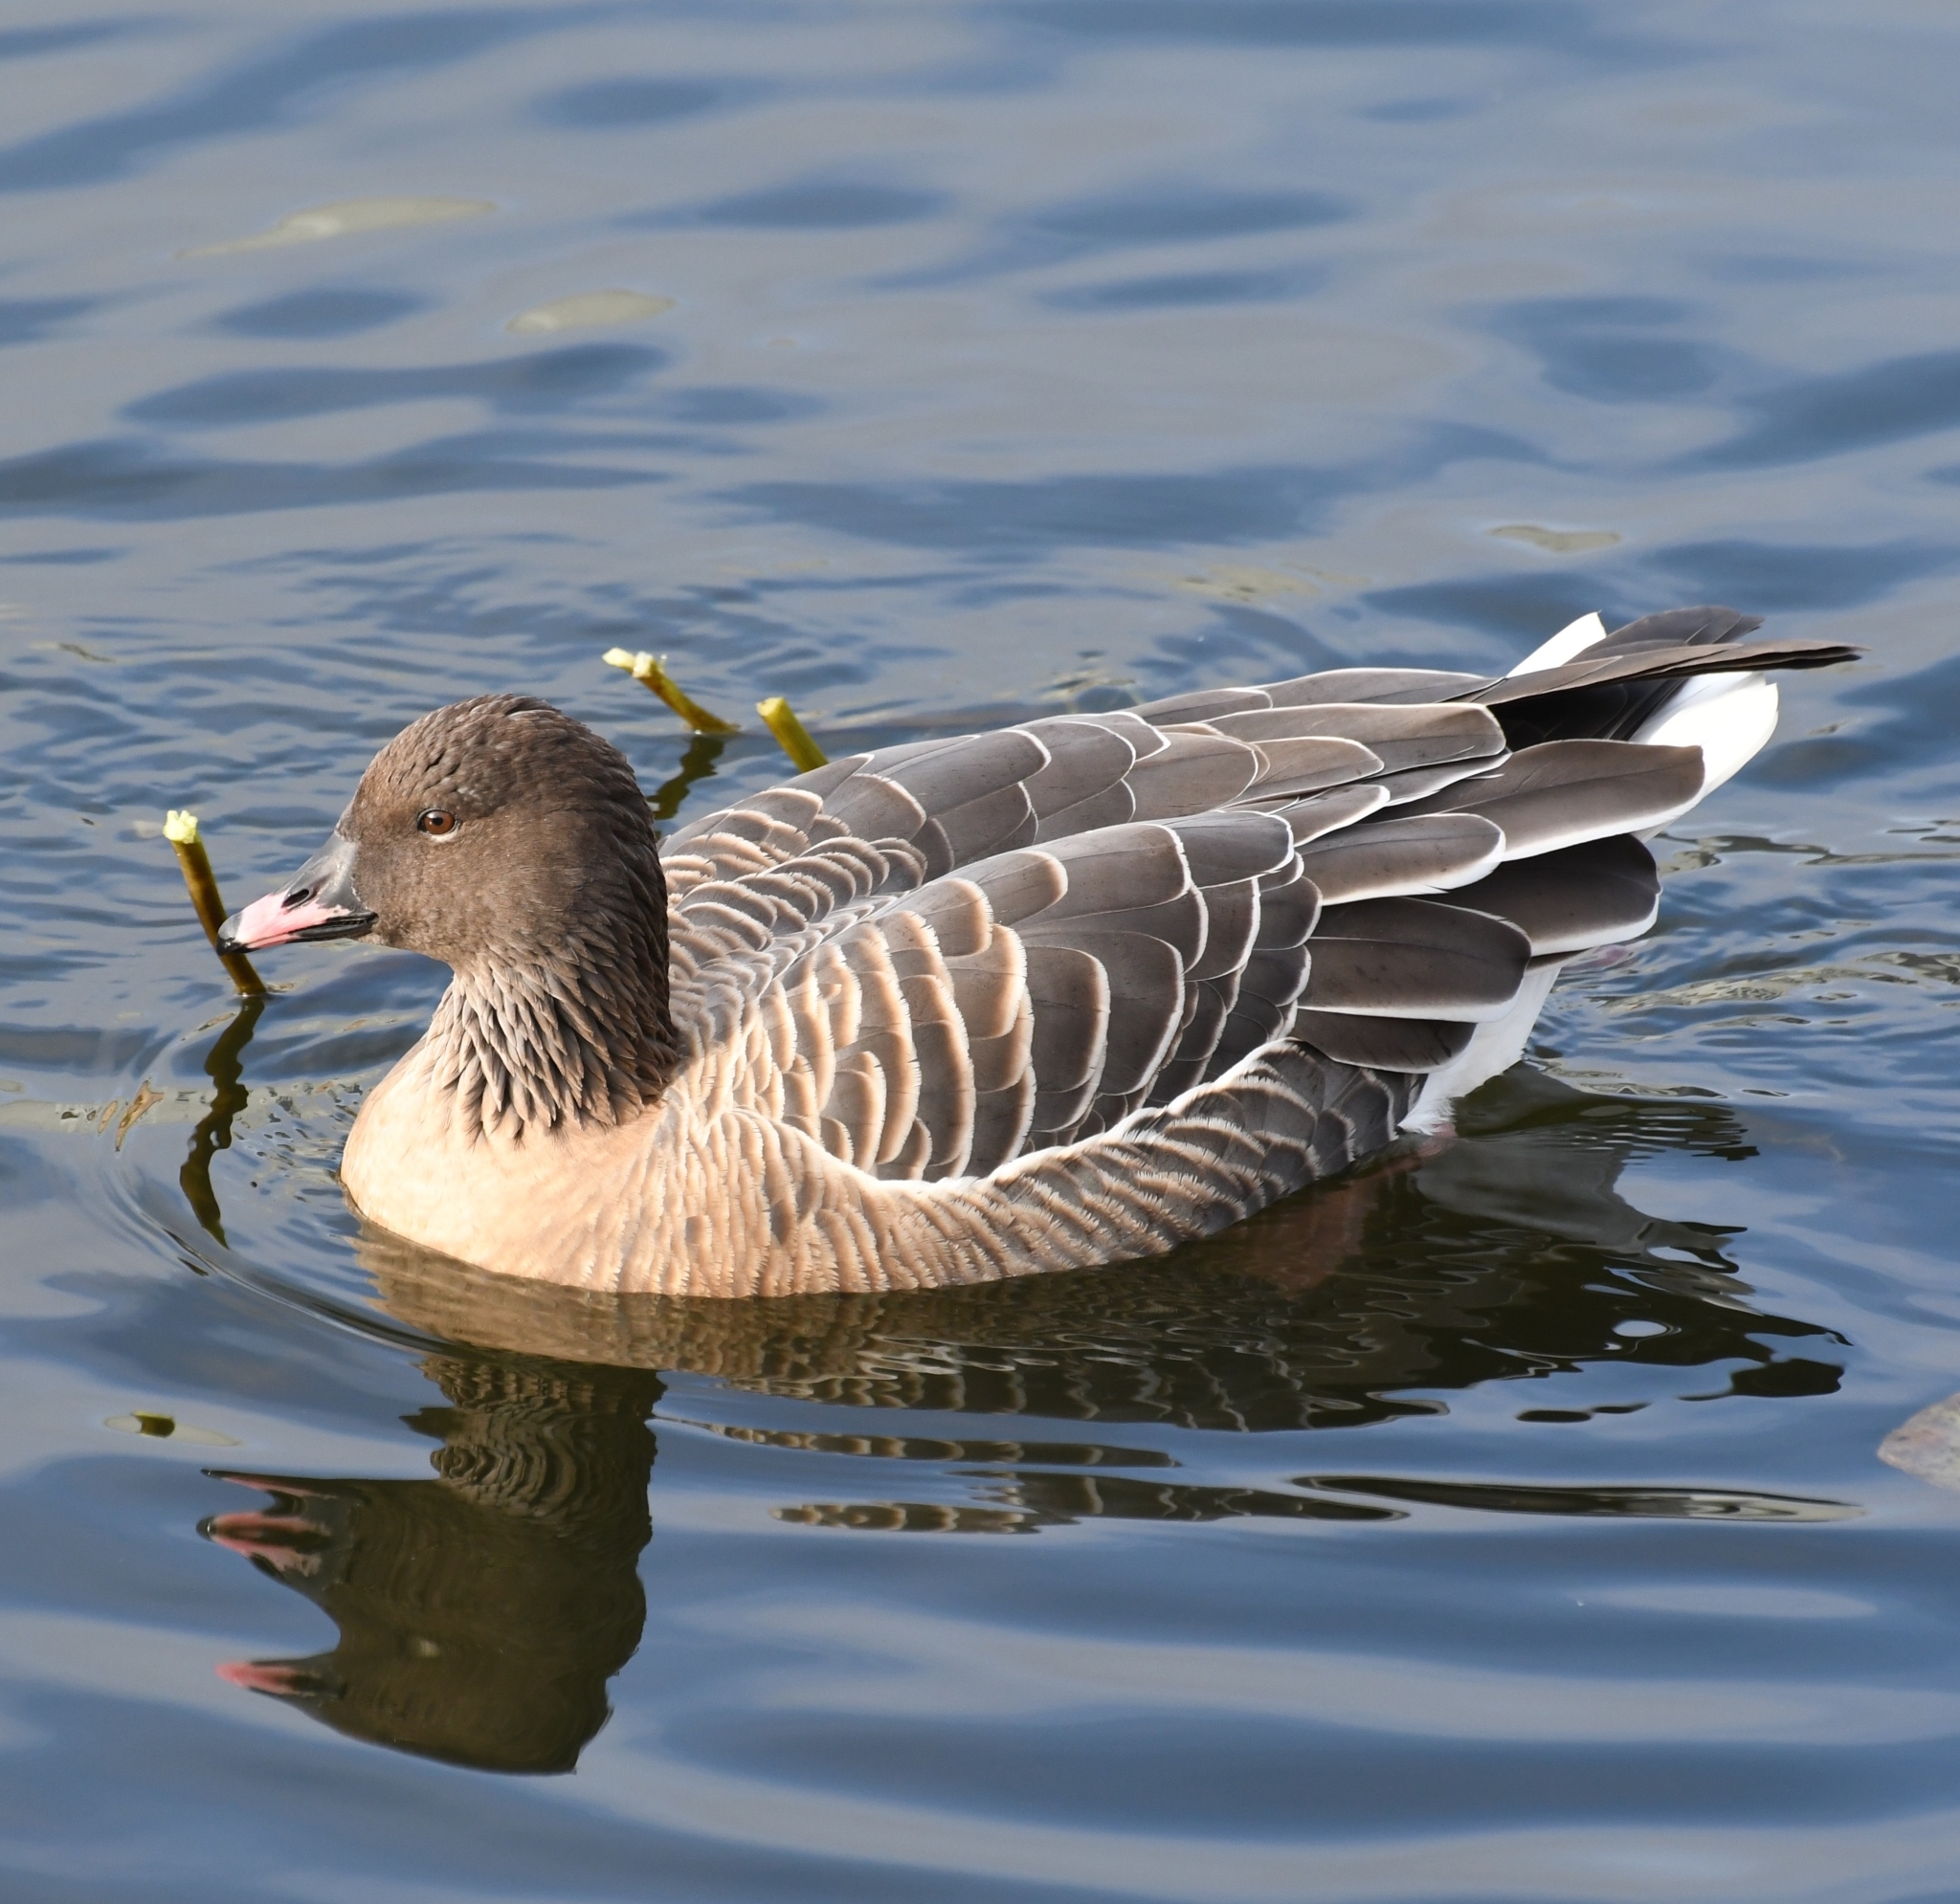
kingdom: Animalia
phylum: Chordata
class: Aves
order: Anseriformes
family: Anatidae
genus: Anser
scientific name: Anser brachyrhynchus
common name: Pink-footed goose
